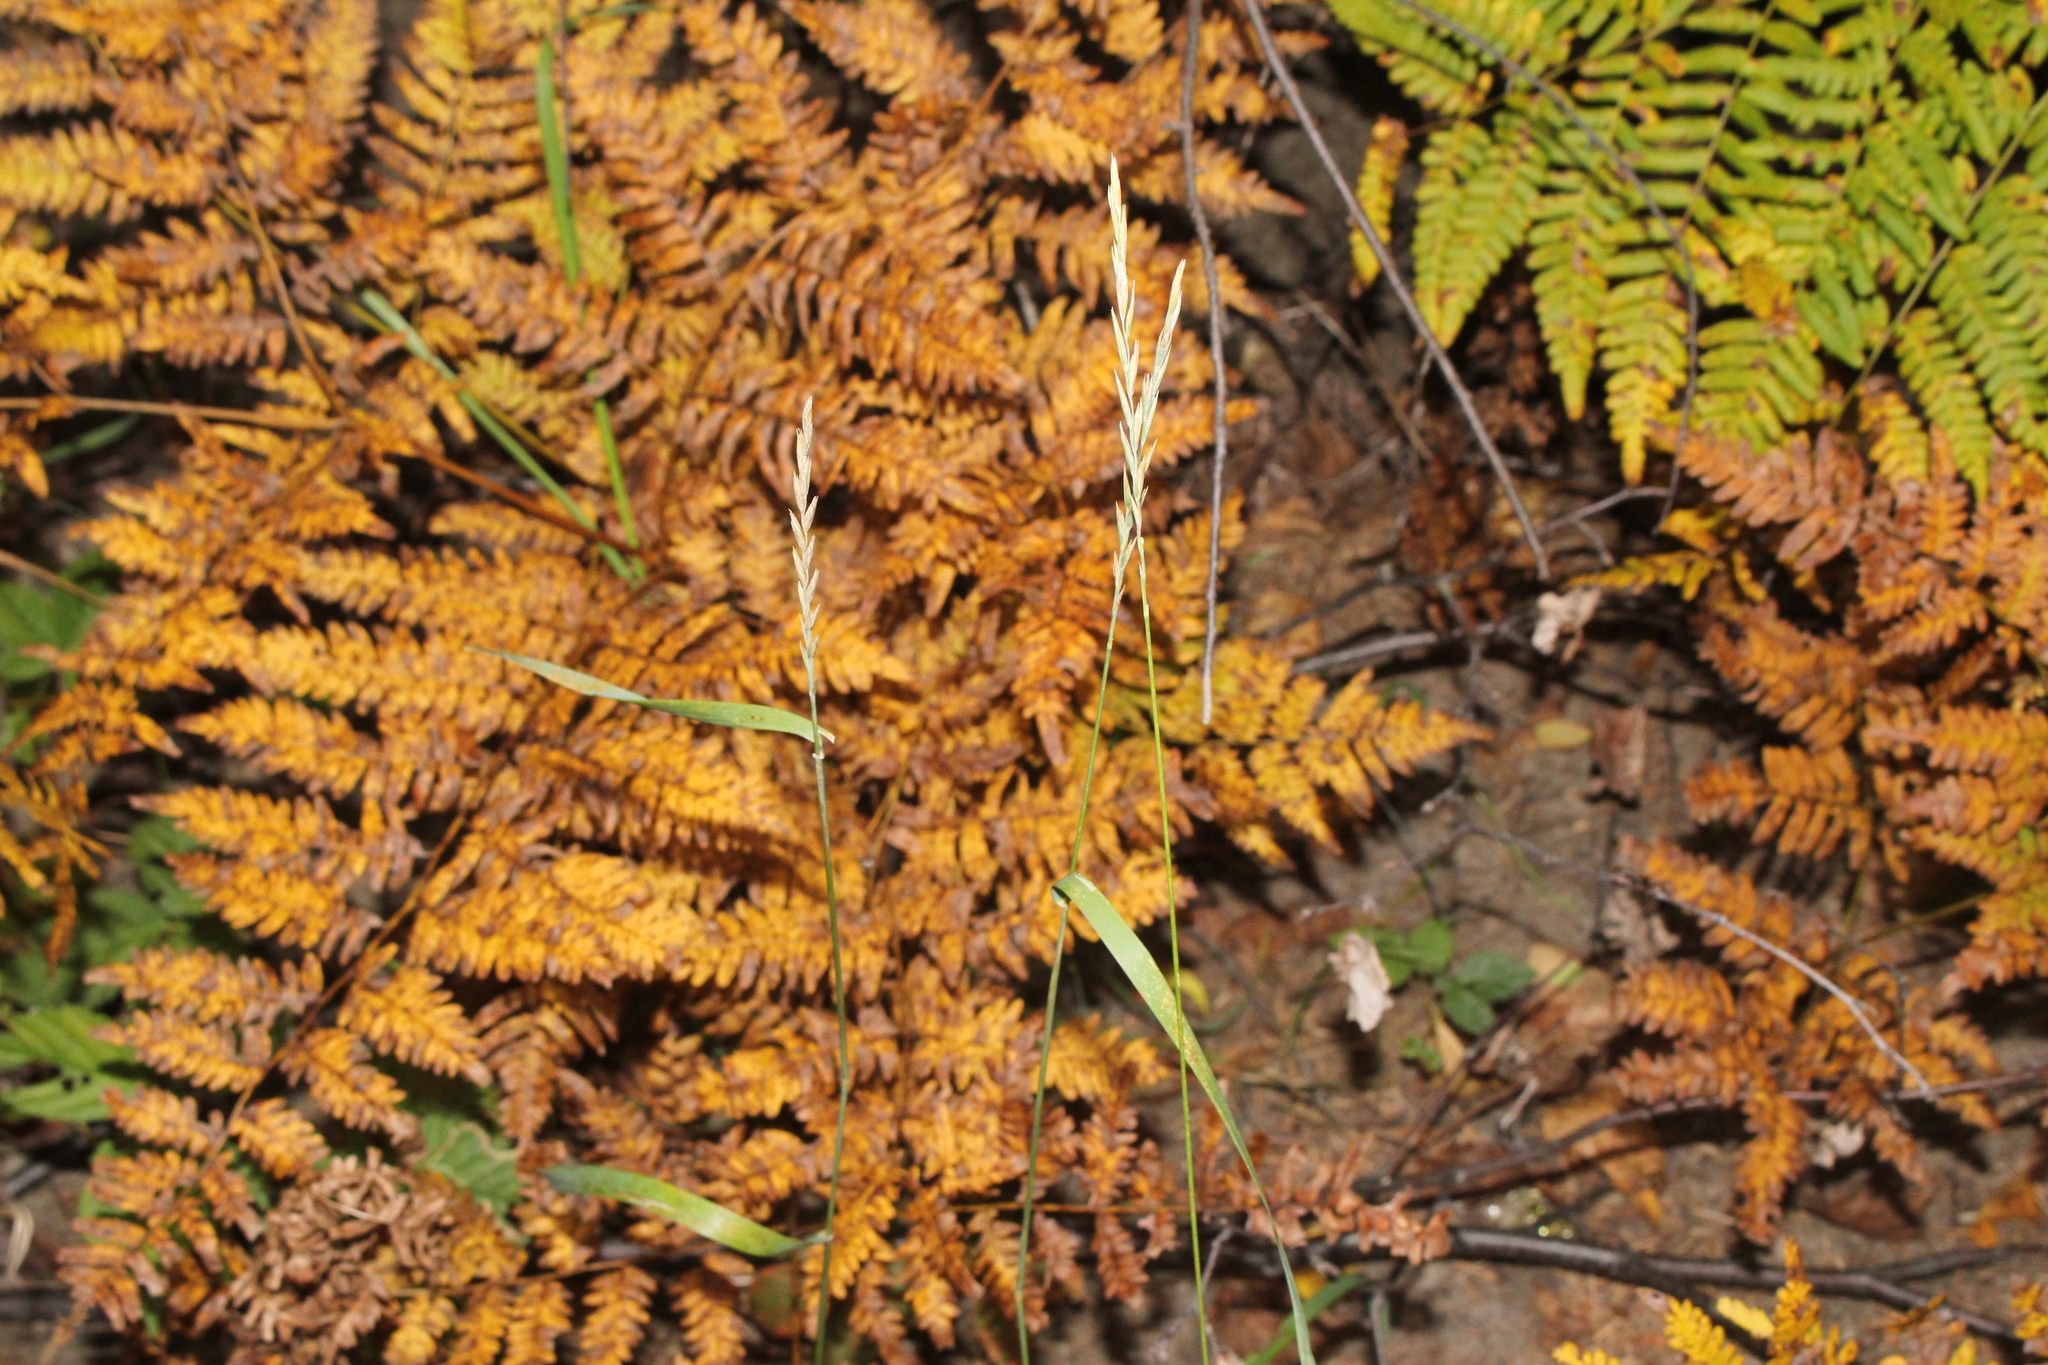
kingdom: Plantae
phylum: Tracheophyta
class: Liliopsida
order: Poales
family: Poaceae
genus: Elymus
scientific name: Elymus repens
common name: Quackgrass
